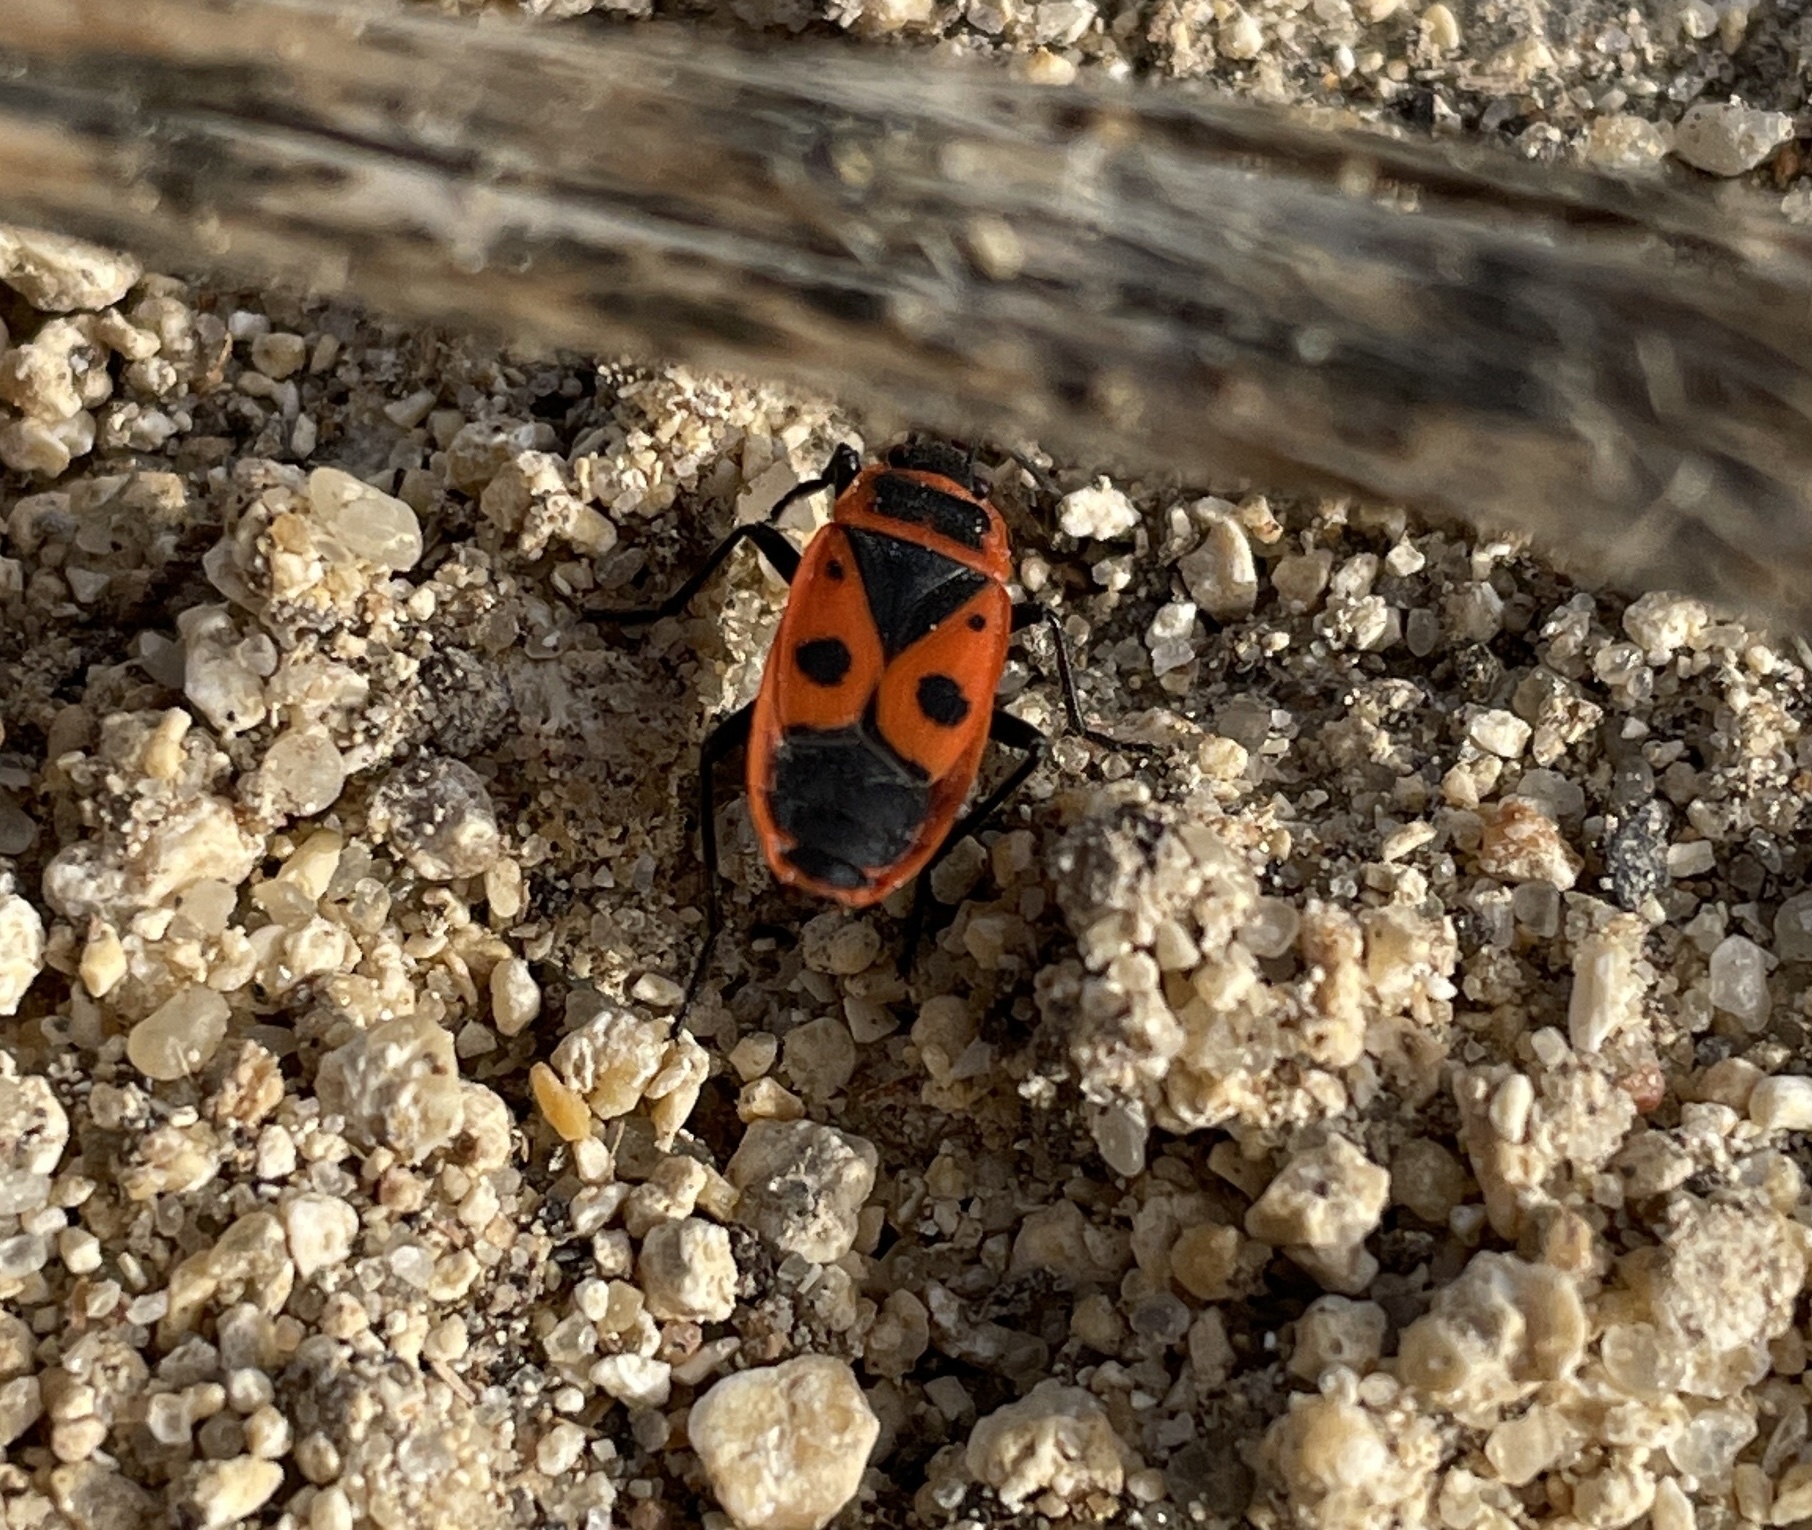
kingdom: Animalia
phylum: Arthropoda
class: Insecta
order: Hemiptera
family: Pyrrhocoridae
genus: Pyrrhocoris
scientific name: Pyrrhocoris apterus
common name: Firebug
